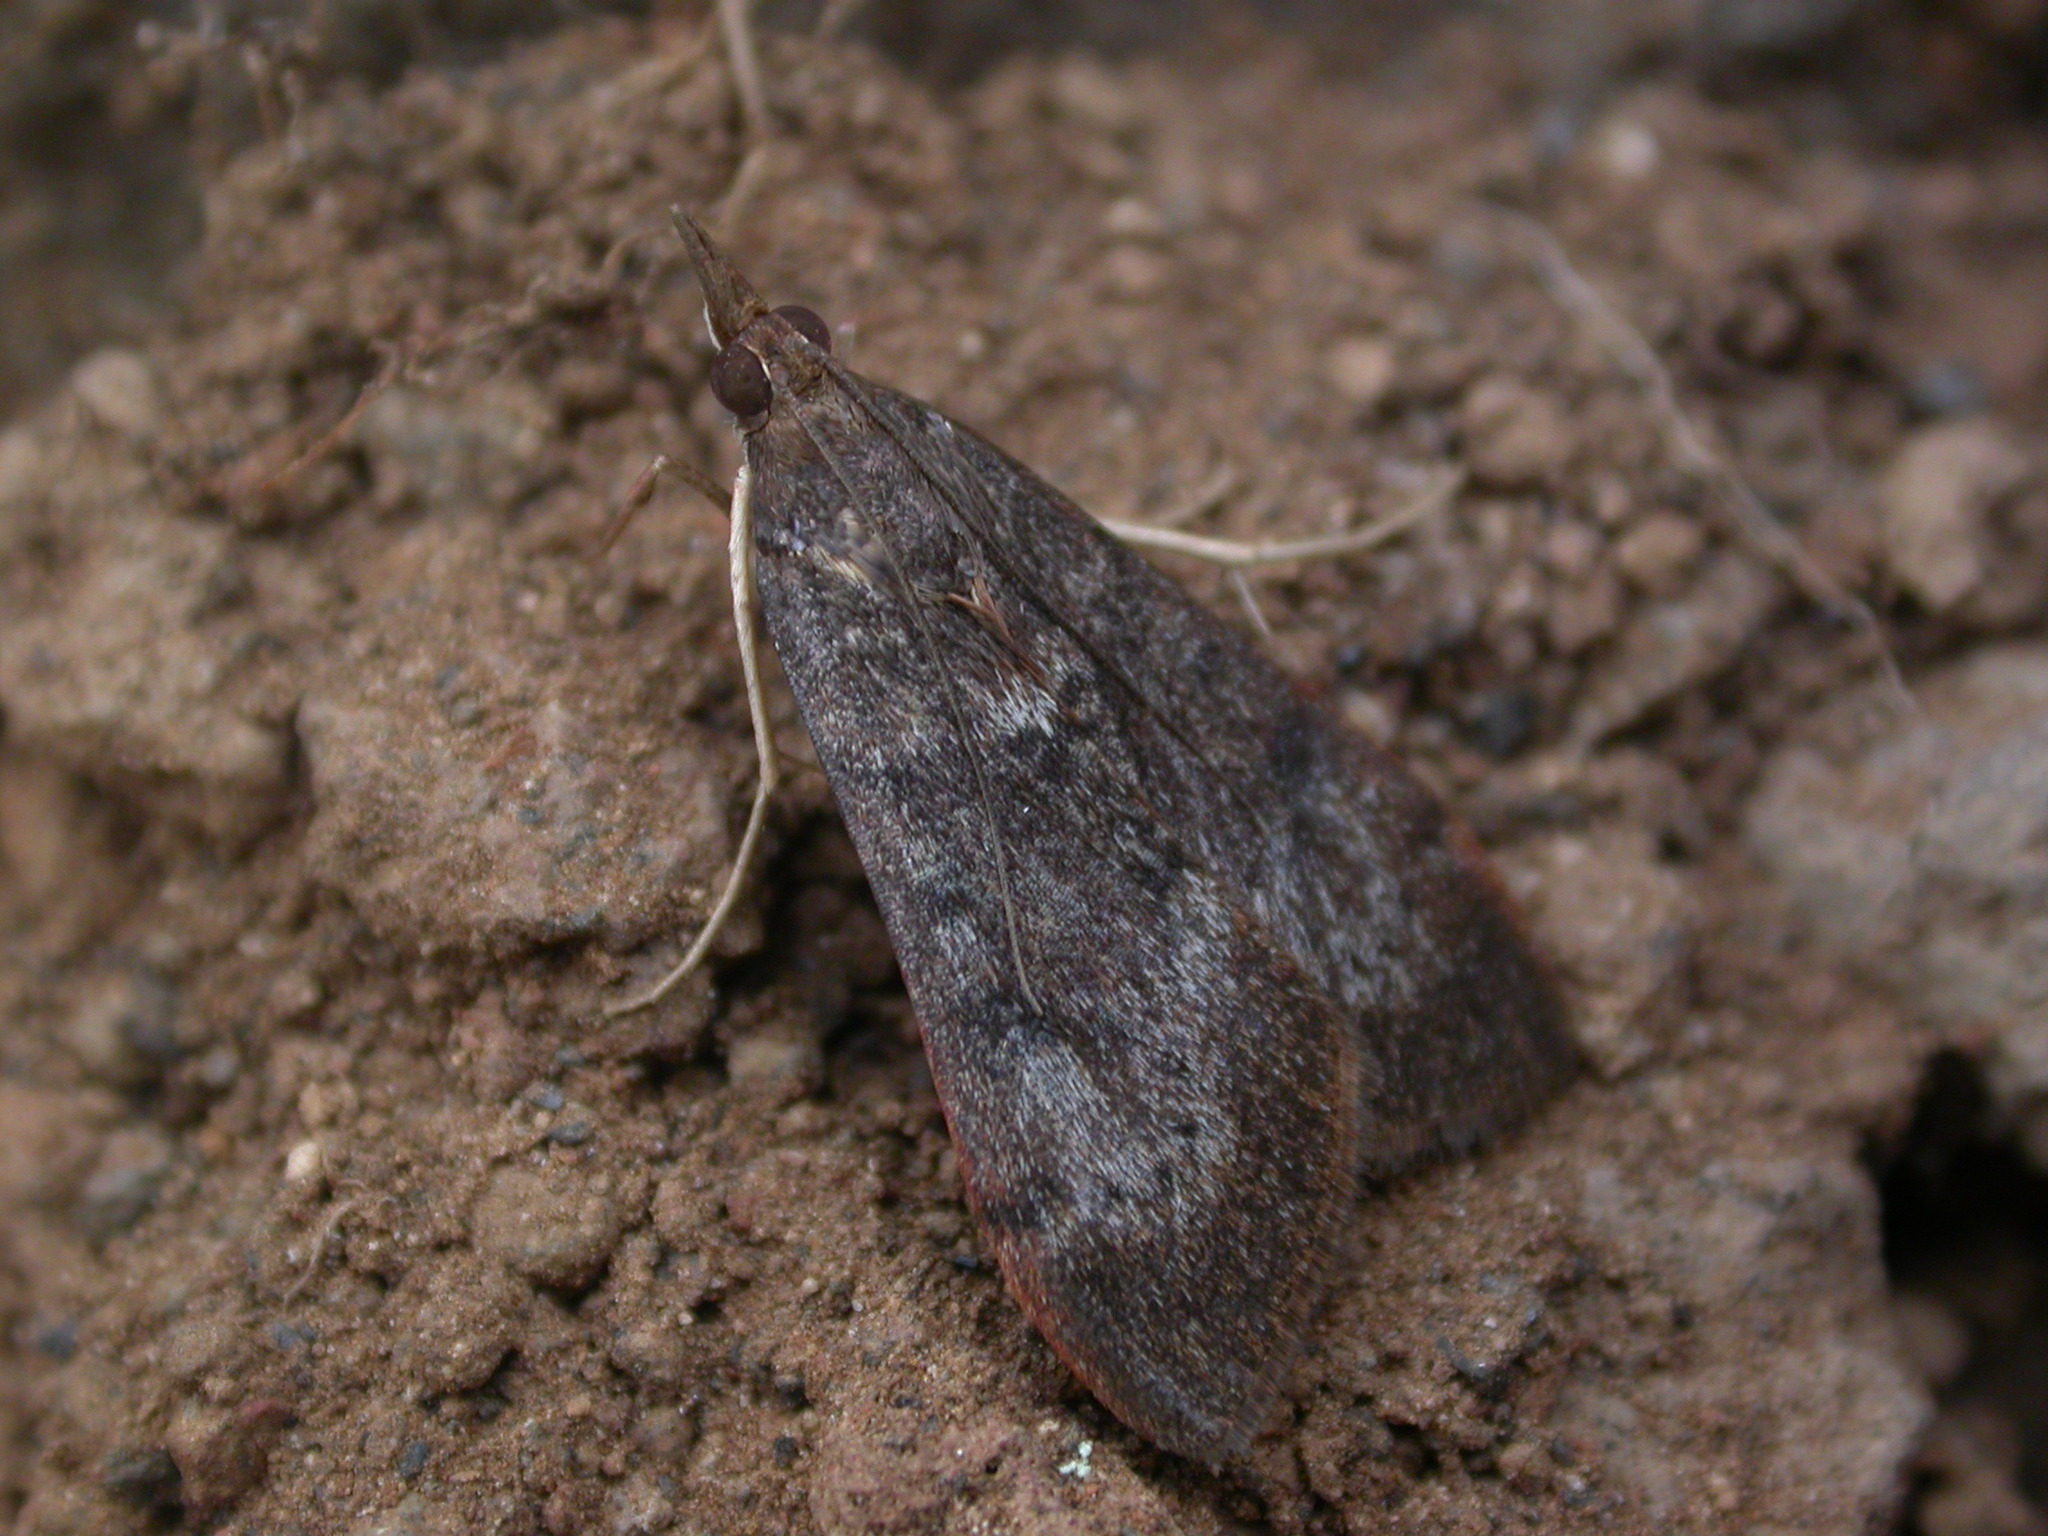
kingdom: Animalia
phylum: Arthropoda
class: Insecta
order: Lepidoptera
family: Crambidae
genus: Uresiphita
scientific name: Uresiphita gilvata
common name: Yellow-underwing pearl
